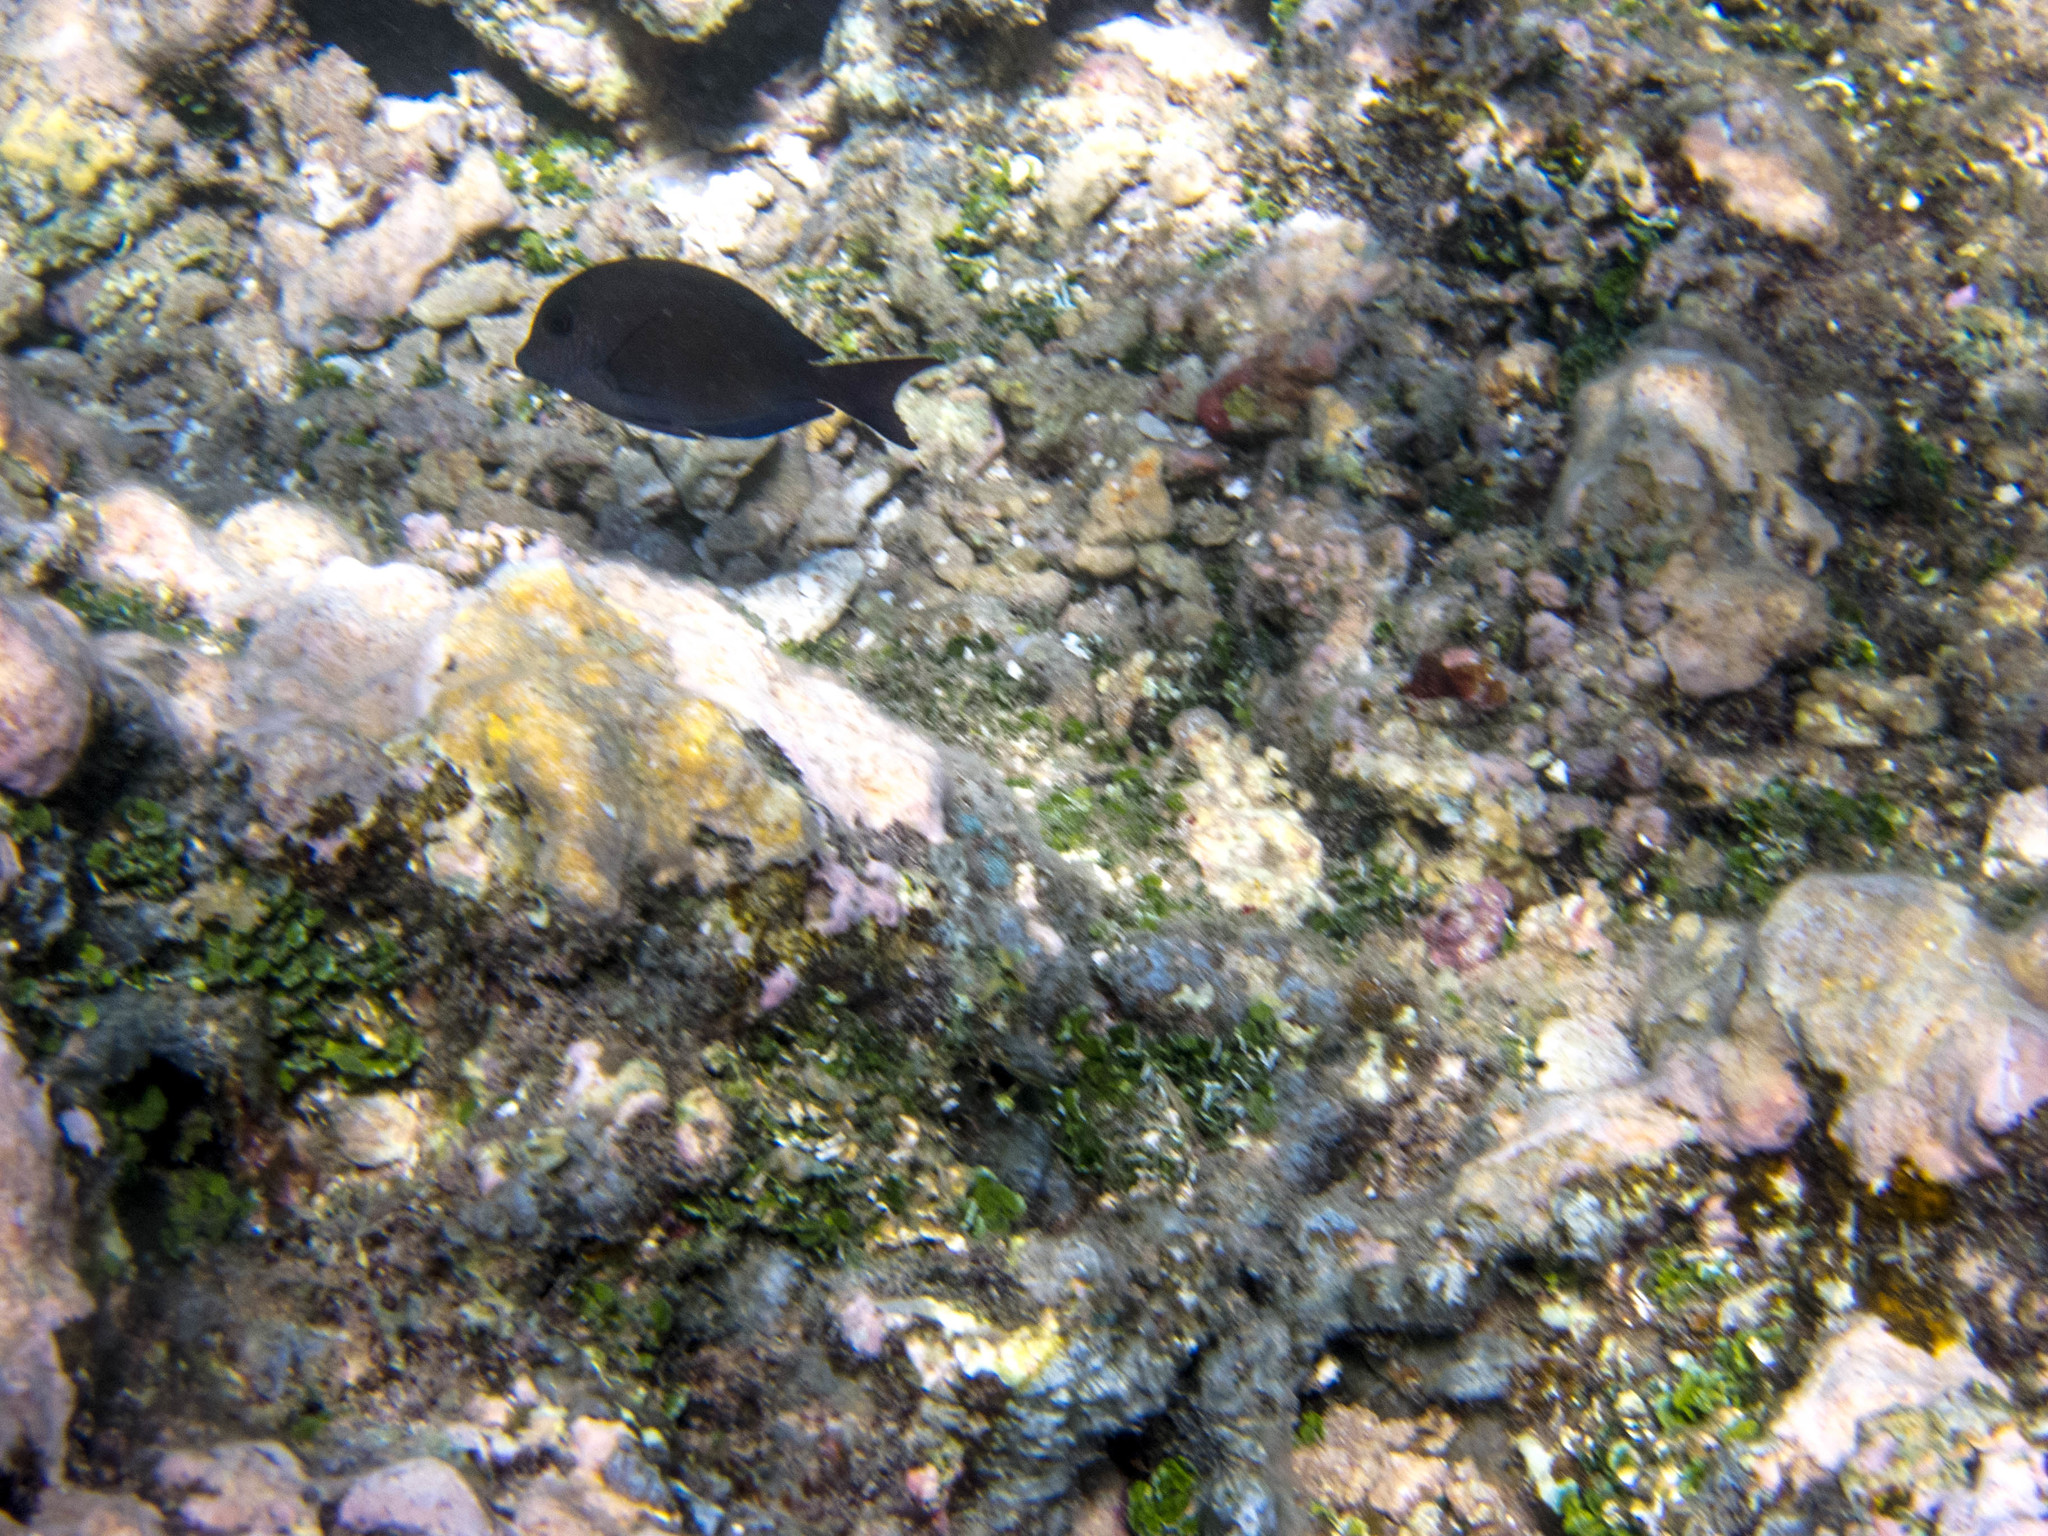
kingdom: Animalia
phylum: Chordata
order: Perciformes
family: Acanthuridae
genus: Ctenochaetus
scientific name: Ctenochaetus striatus
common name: Bristle-toothed surgeonfish
